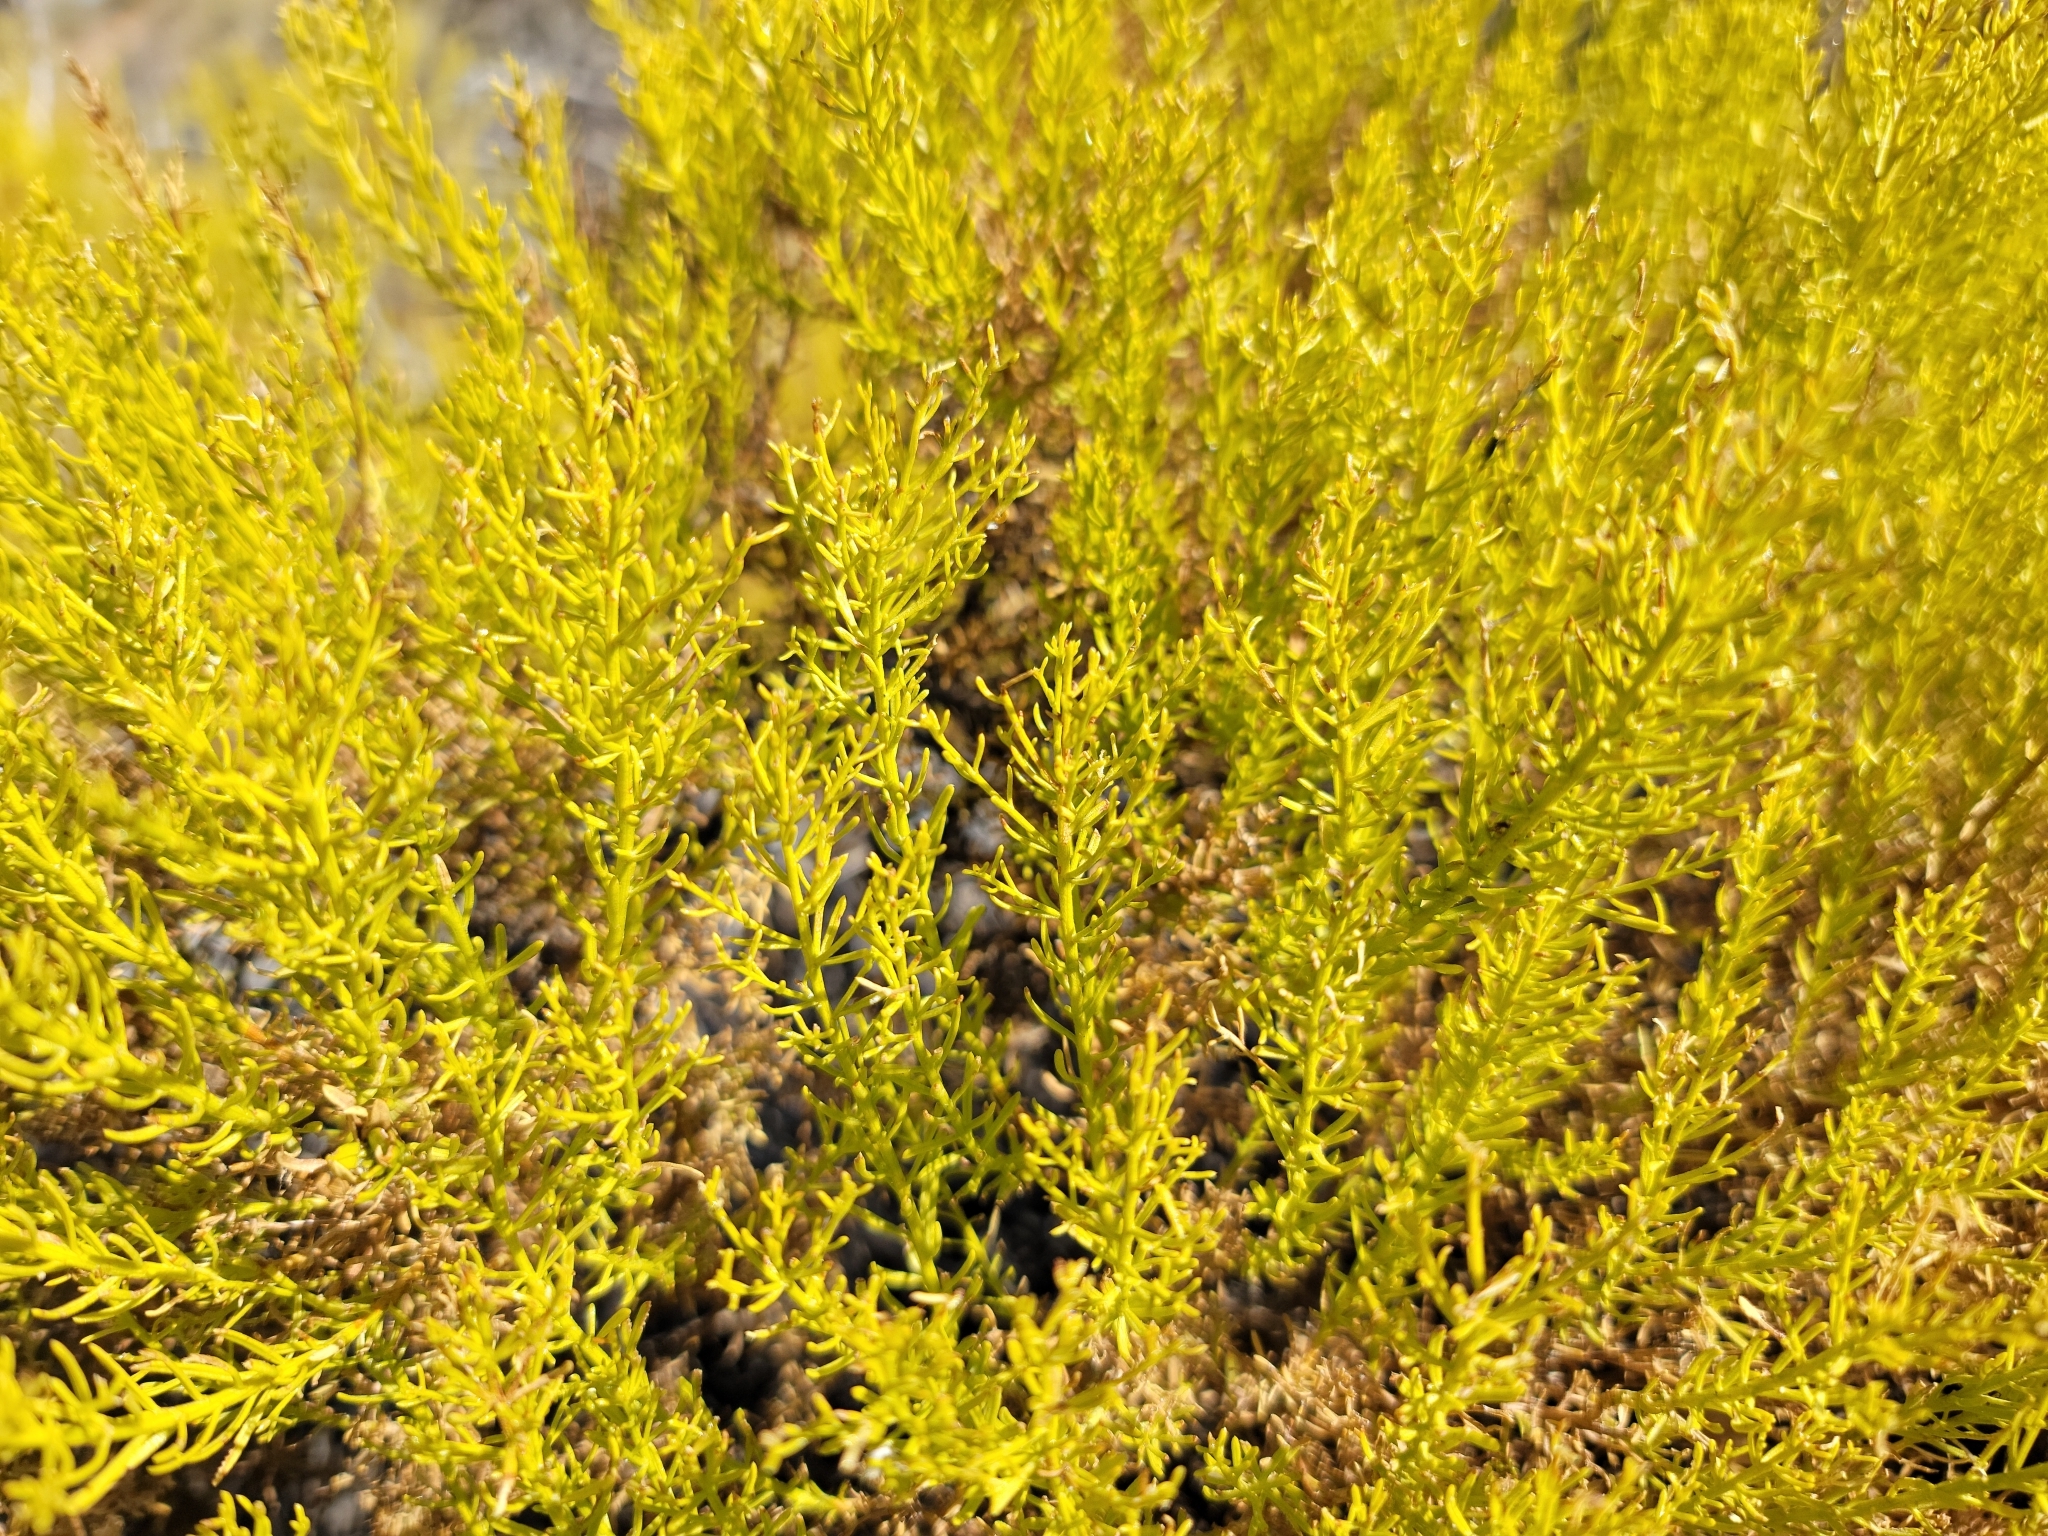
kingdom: Plantae
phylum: Tracheophyta
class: Magnoliopsida
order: Asterales
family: Asteraceae
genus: Ericameria
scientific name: Ericameria laricifolia
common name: Turpentine-bush
